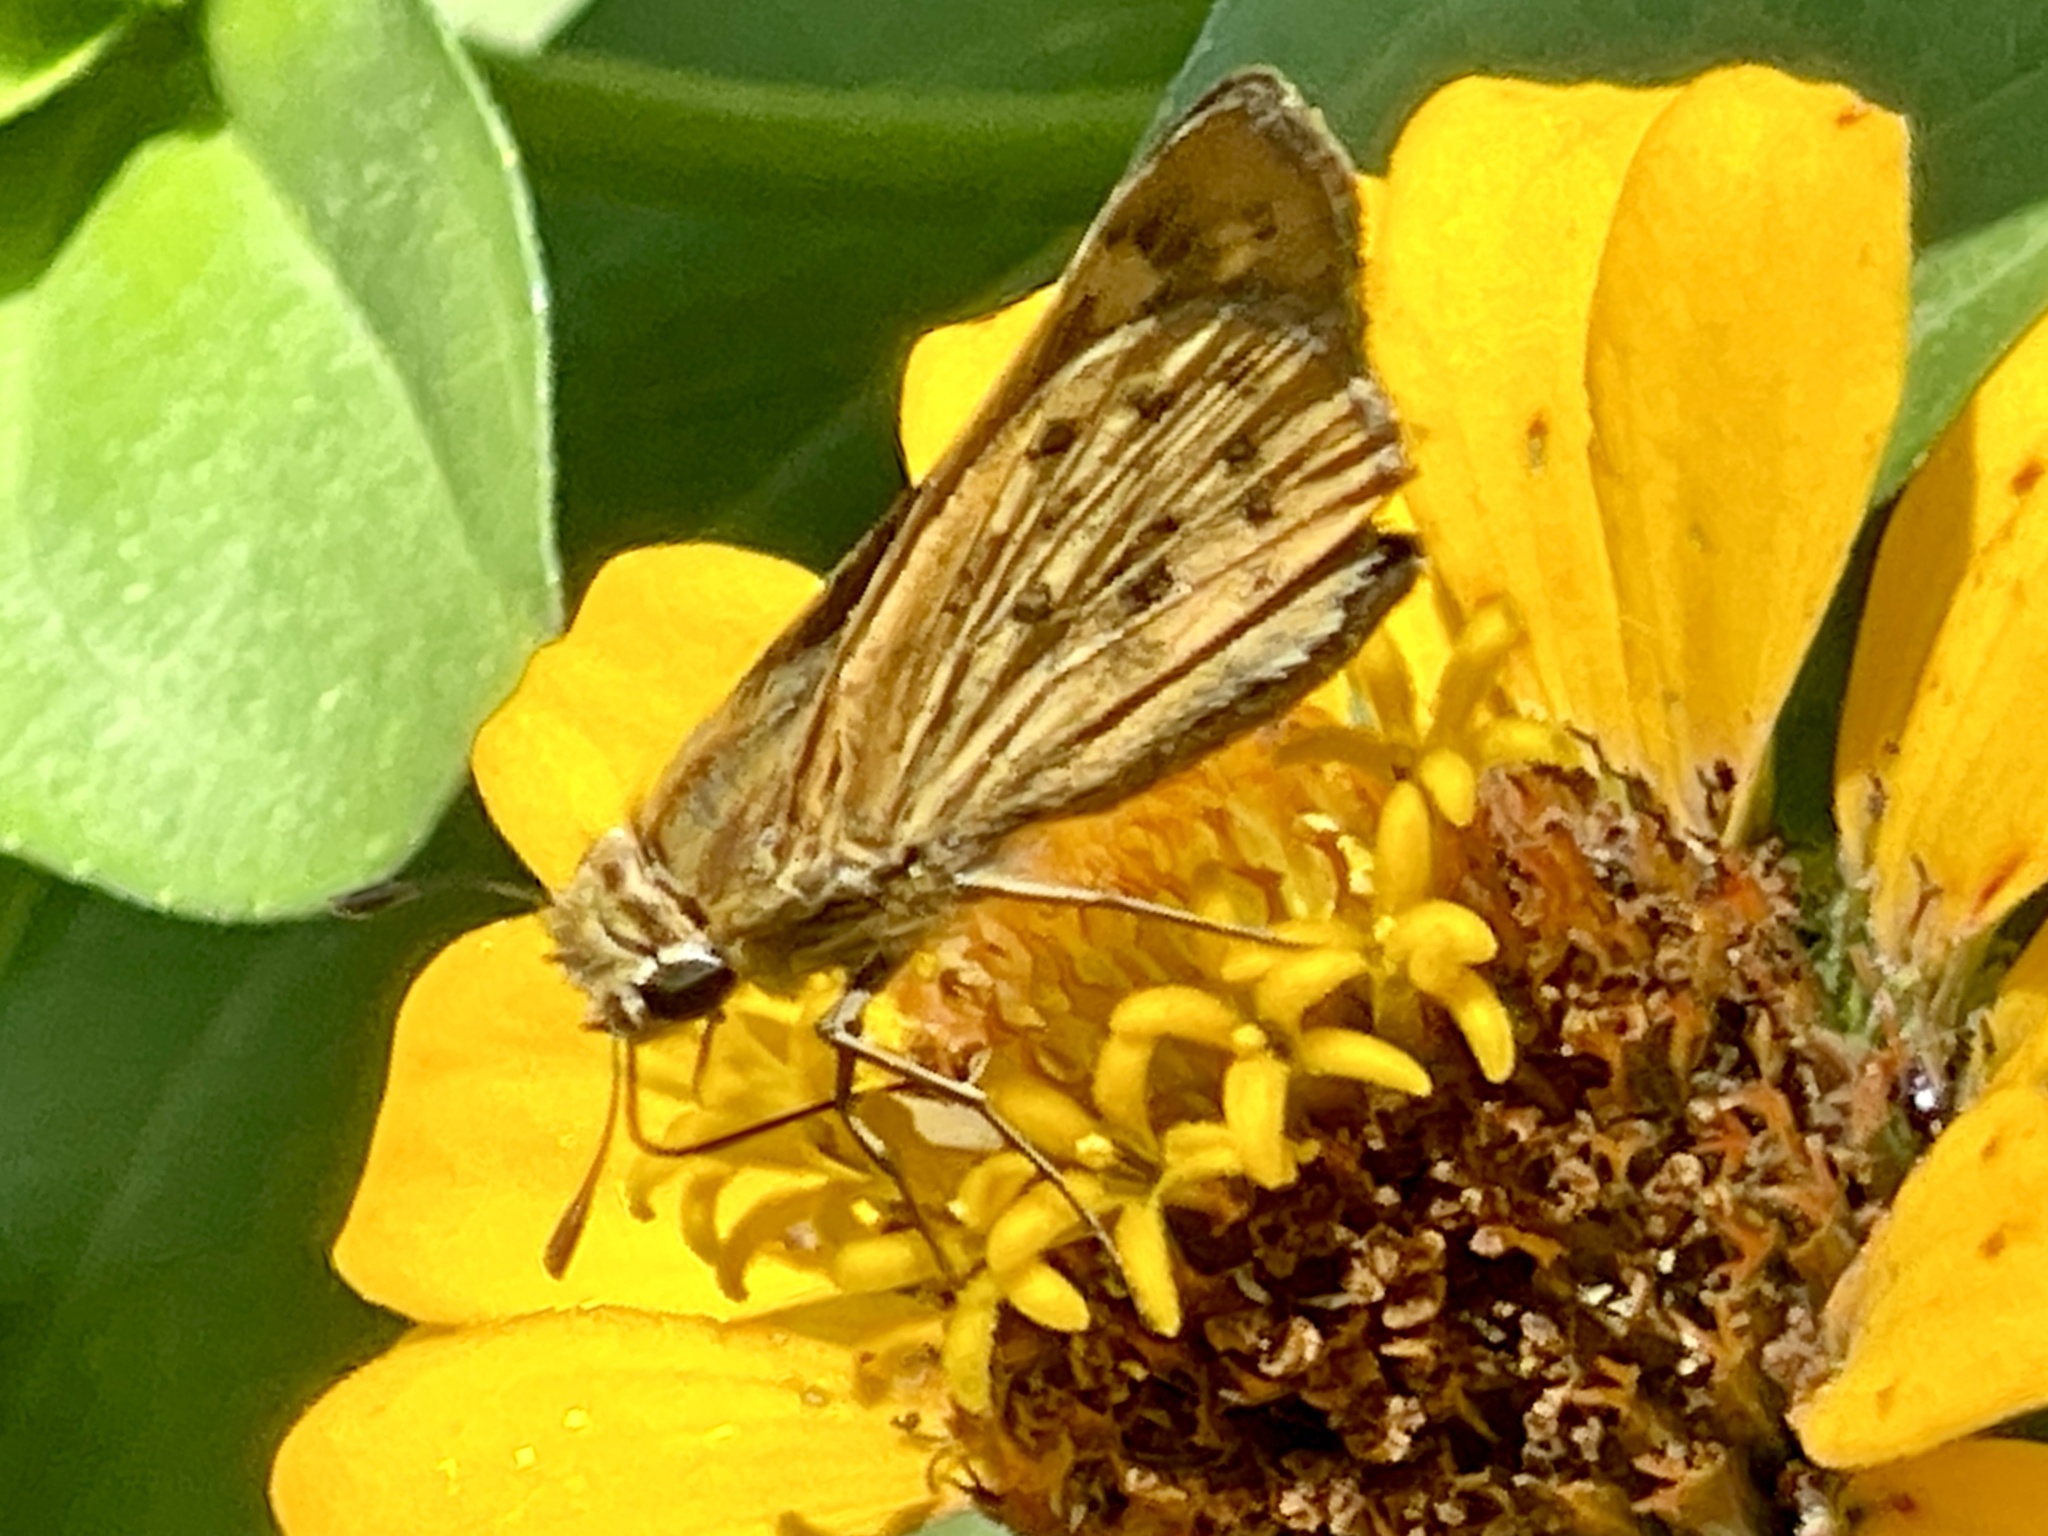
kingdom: Animalia
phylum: Arthropoda
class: Insecta
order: Lepidoptera
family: Hesperiidae
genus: Hylephila
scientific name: Hylephila phyleus
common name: Fiery skipper
